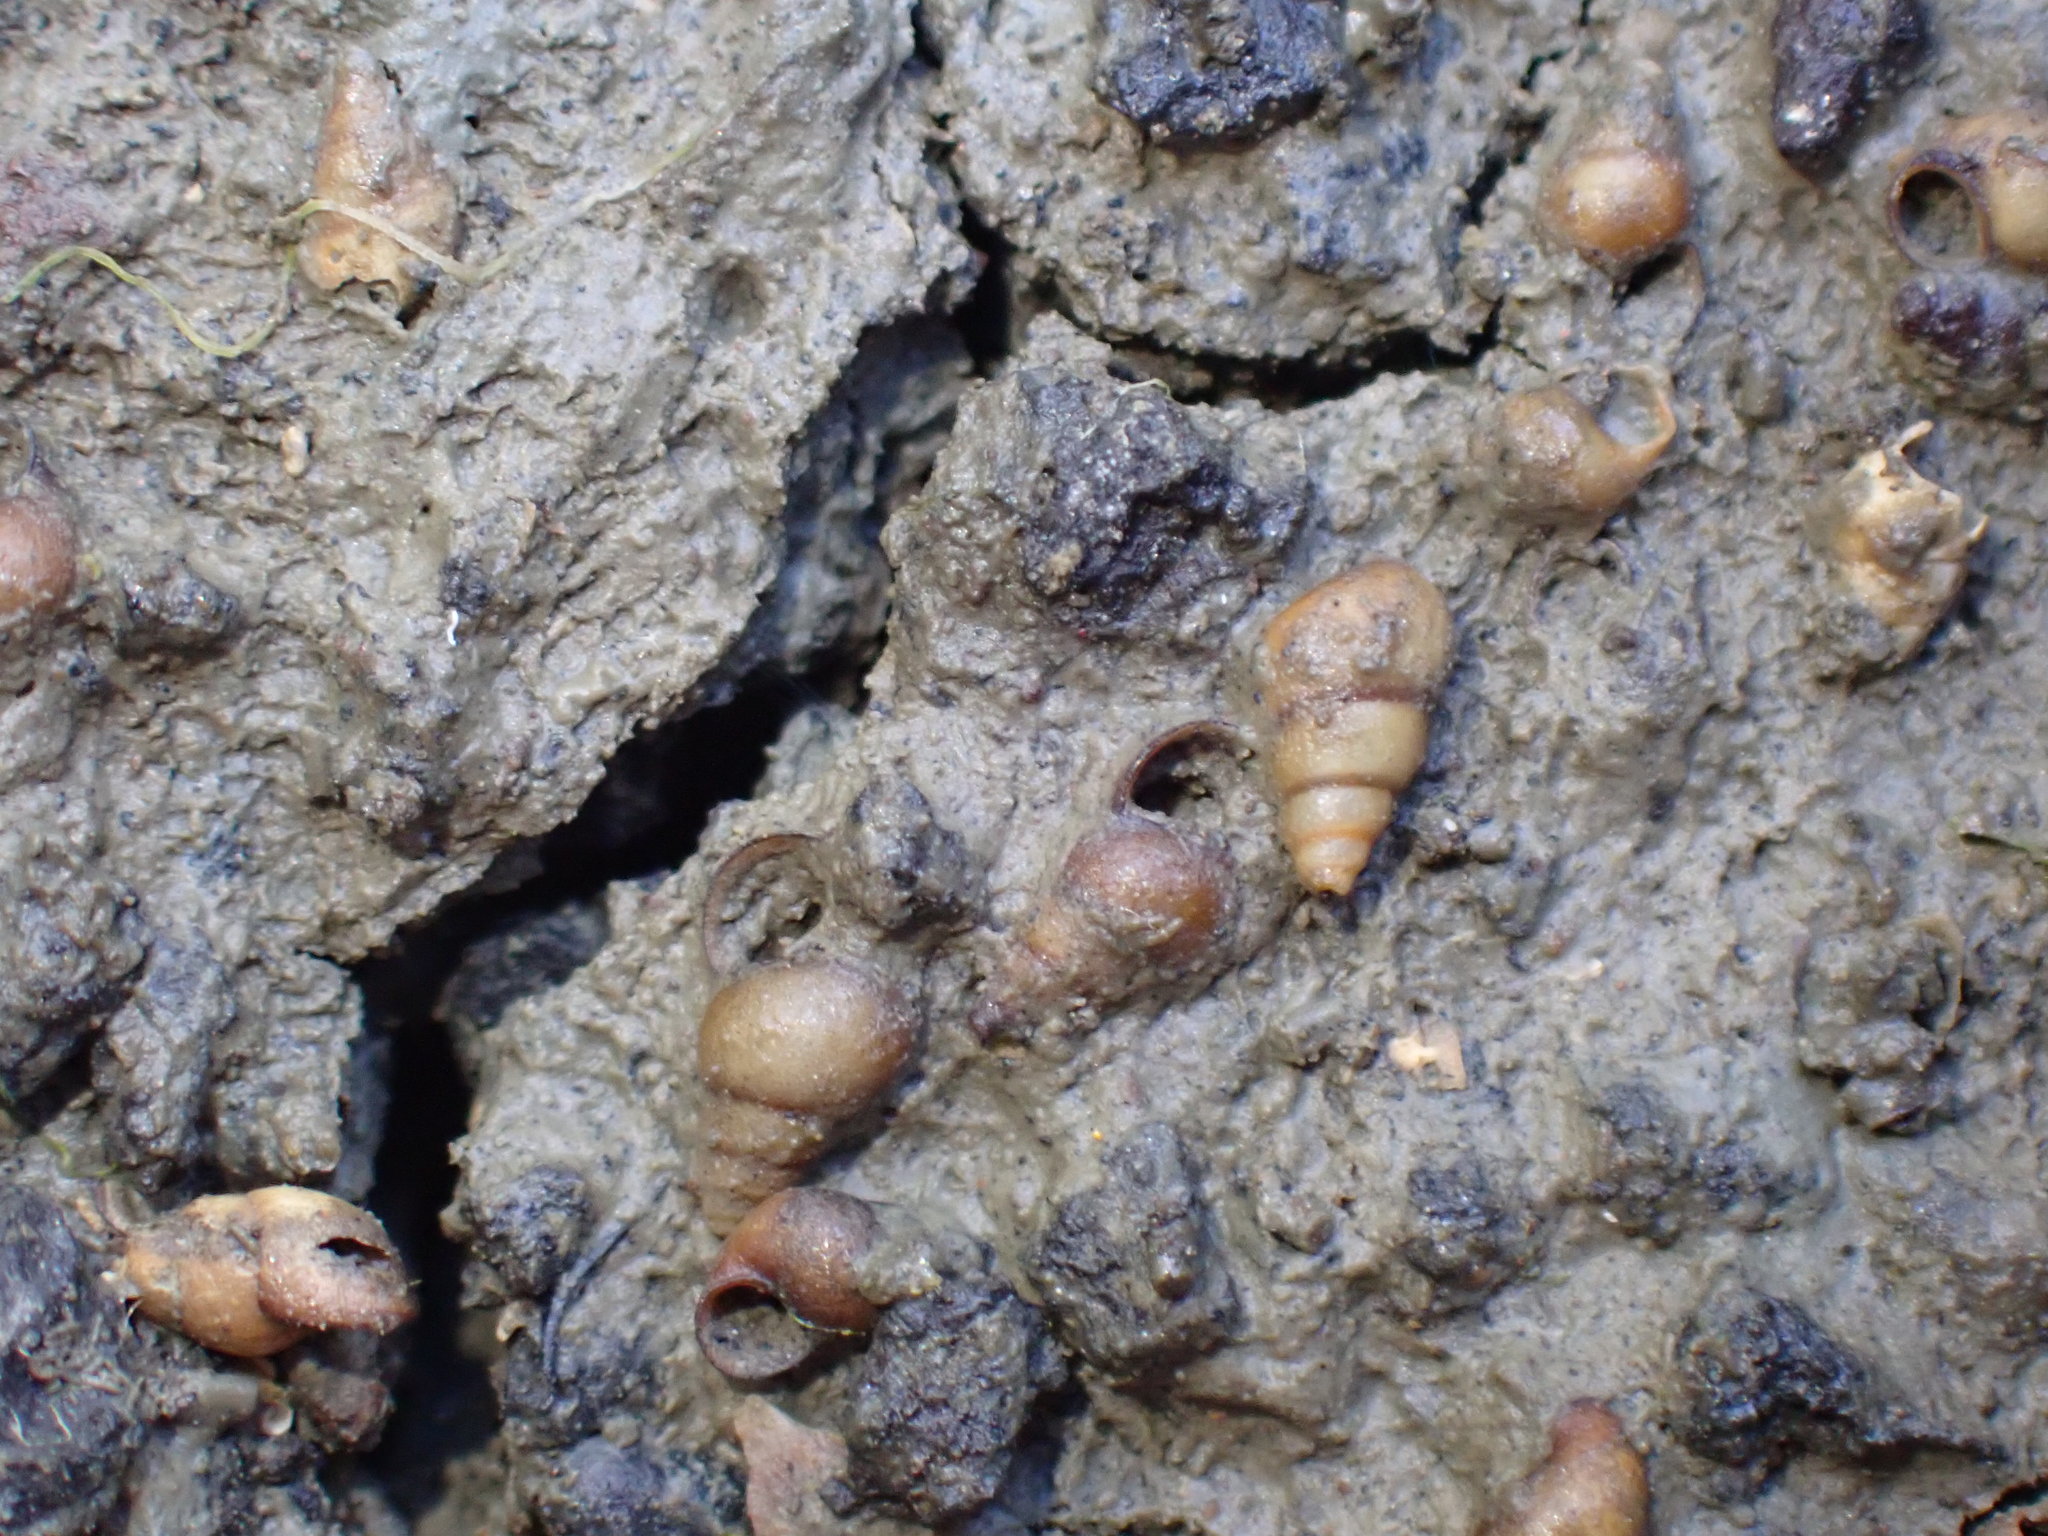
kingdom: Animalia
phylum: Mollusca
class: Gastropoda
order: Littorinimorpha
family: Tateidae
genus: Potamopyrgus
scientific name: Potamopyrgus estuarinus
